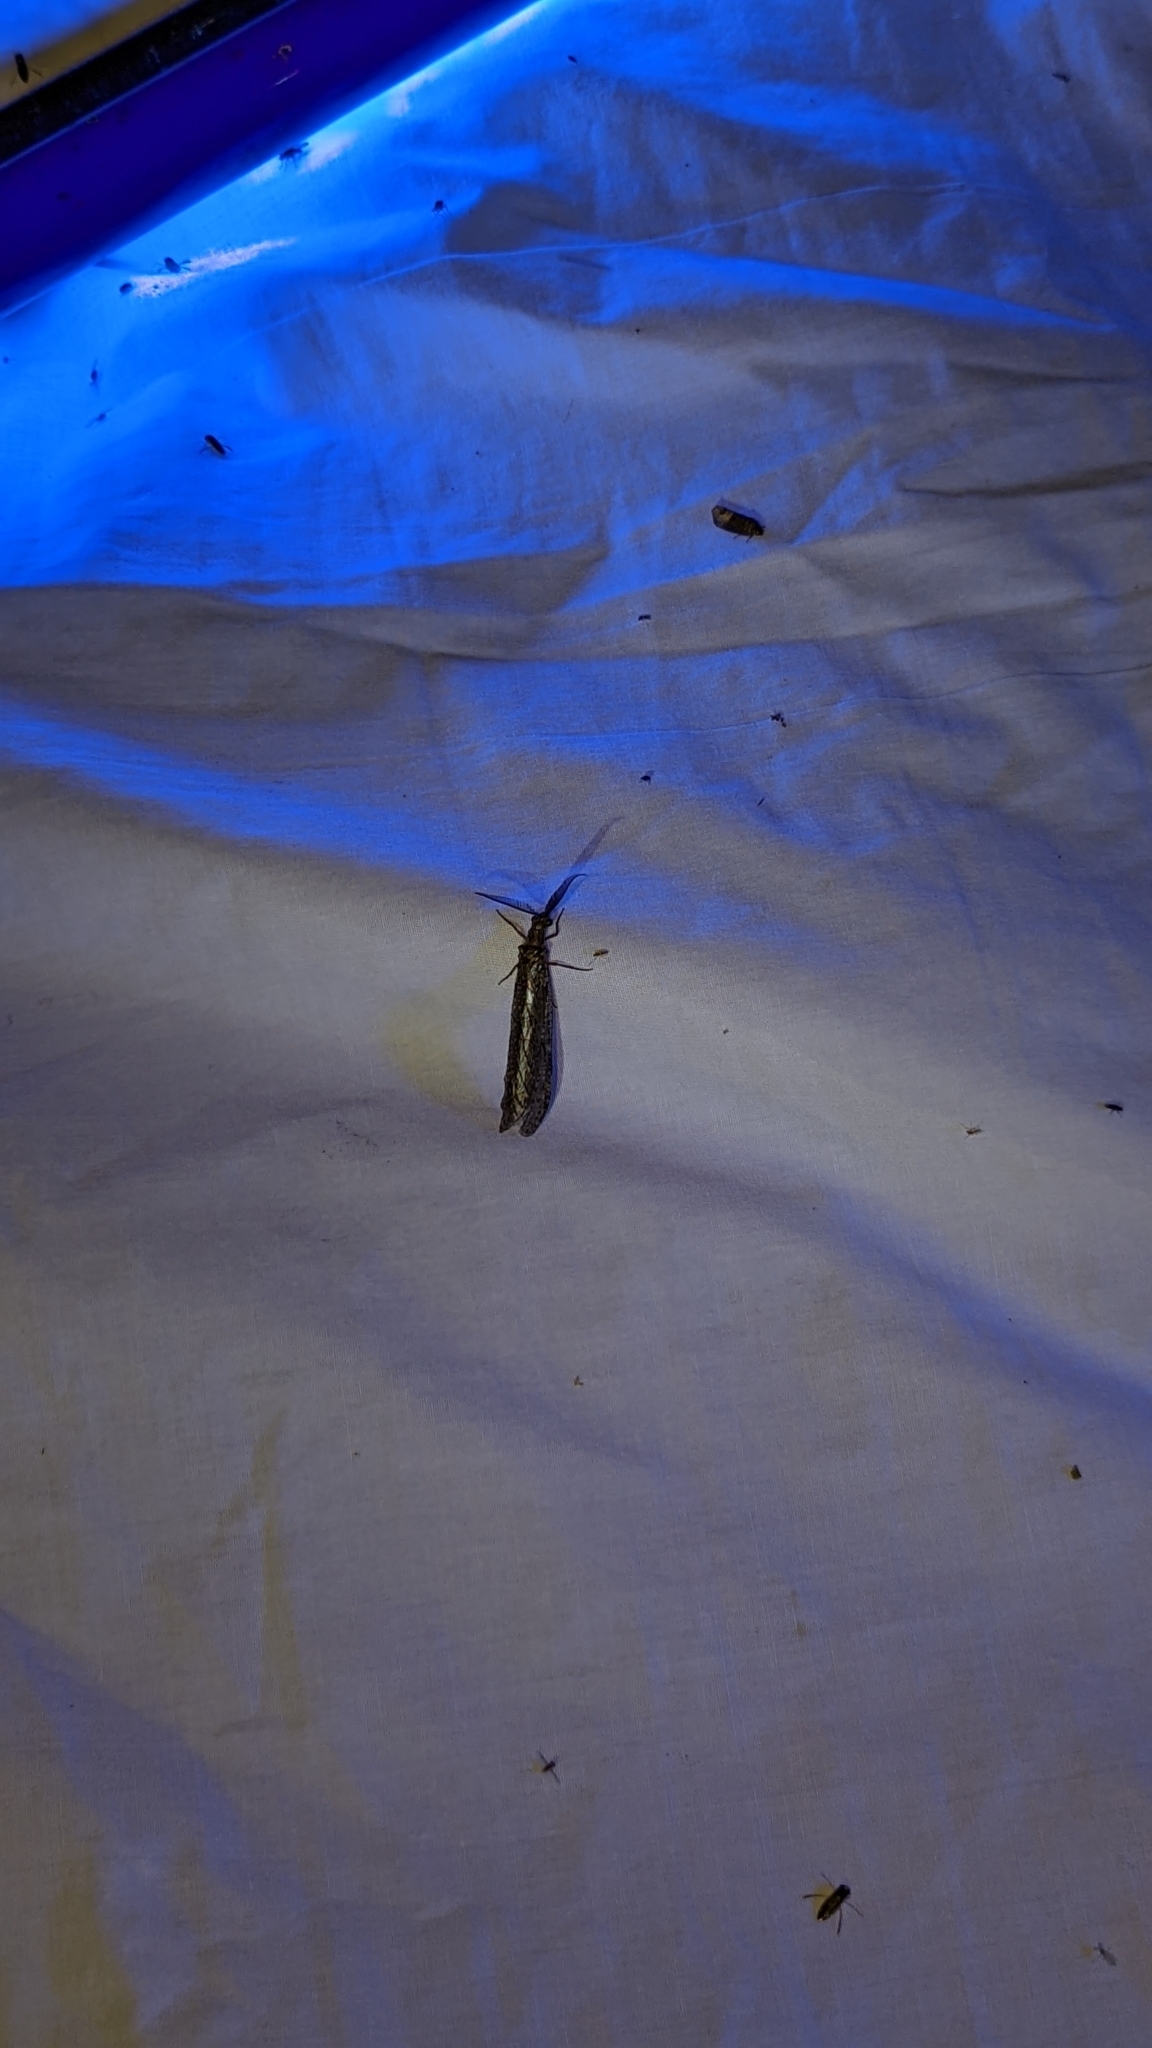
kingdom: Animalia
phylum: Arthropoda
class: Insecta
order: Megaloptera
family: Corydalidae
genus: Chauliodes
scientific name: Chauliodes
